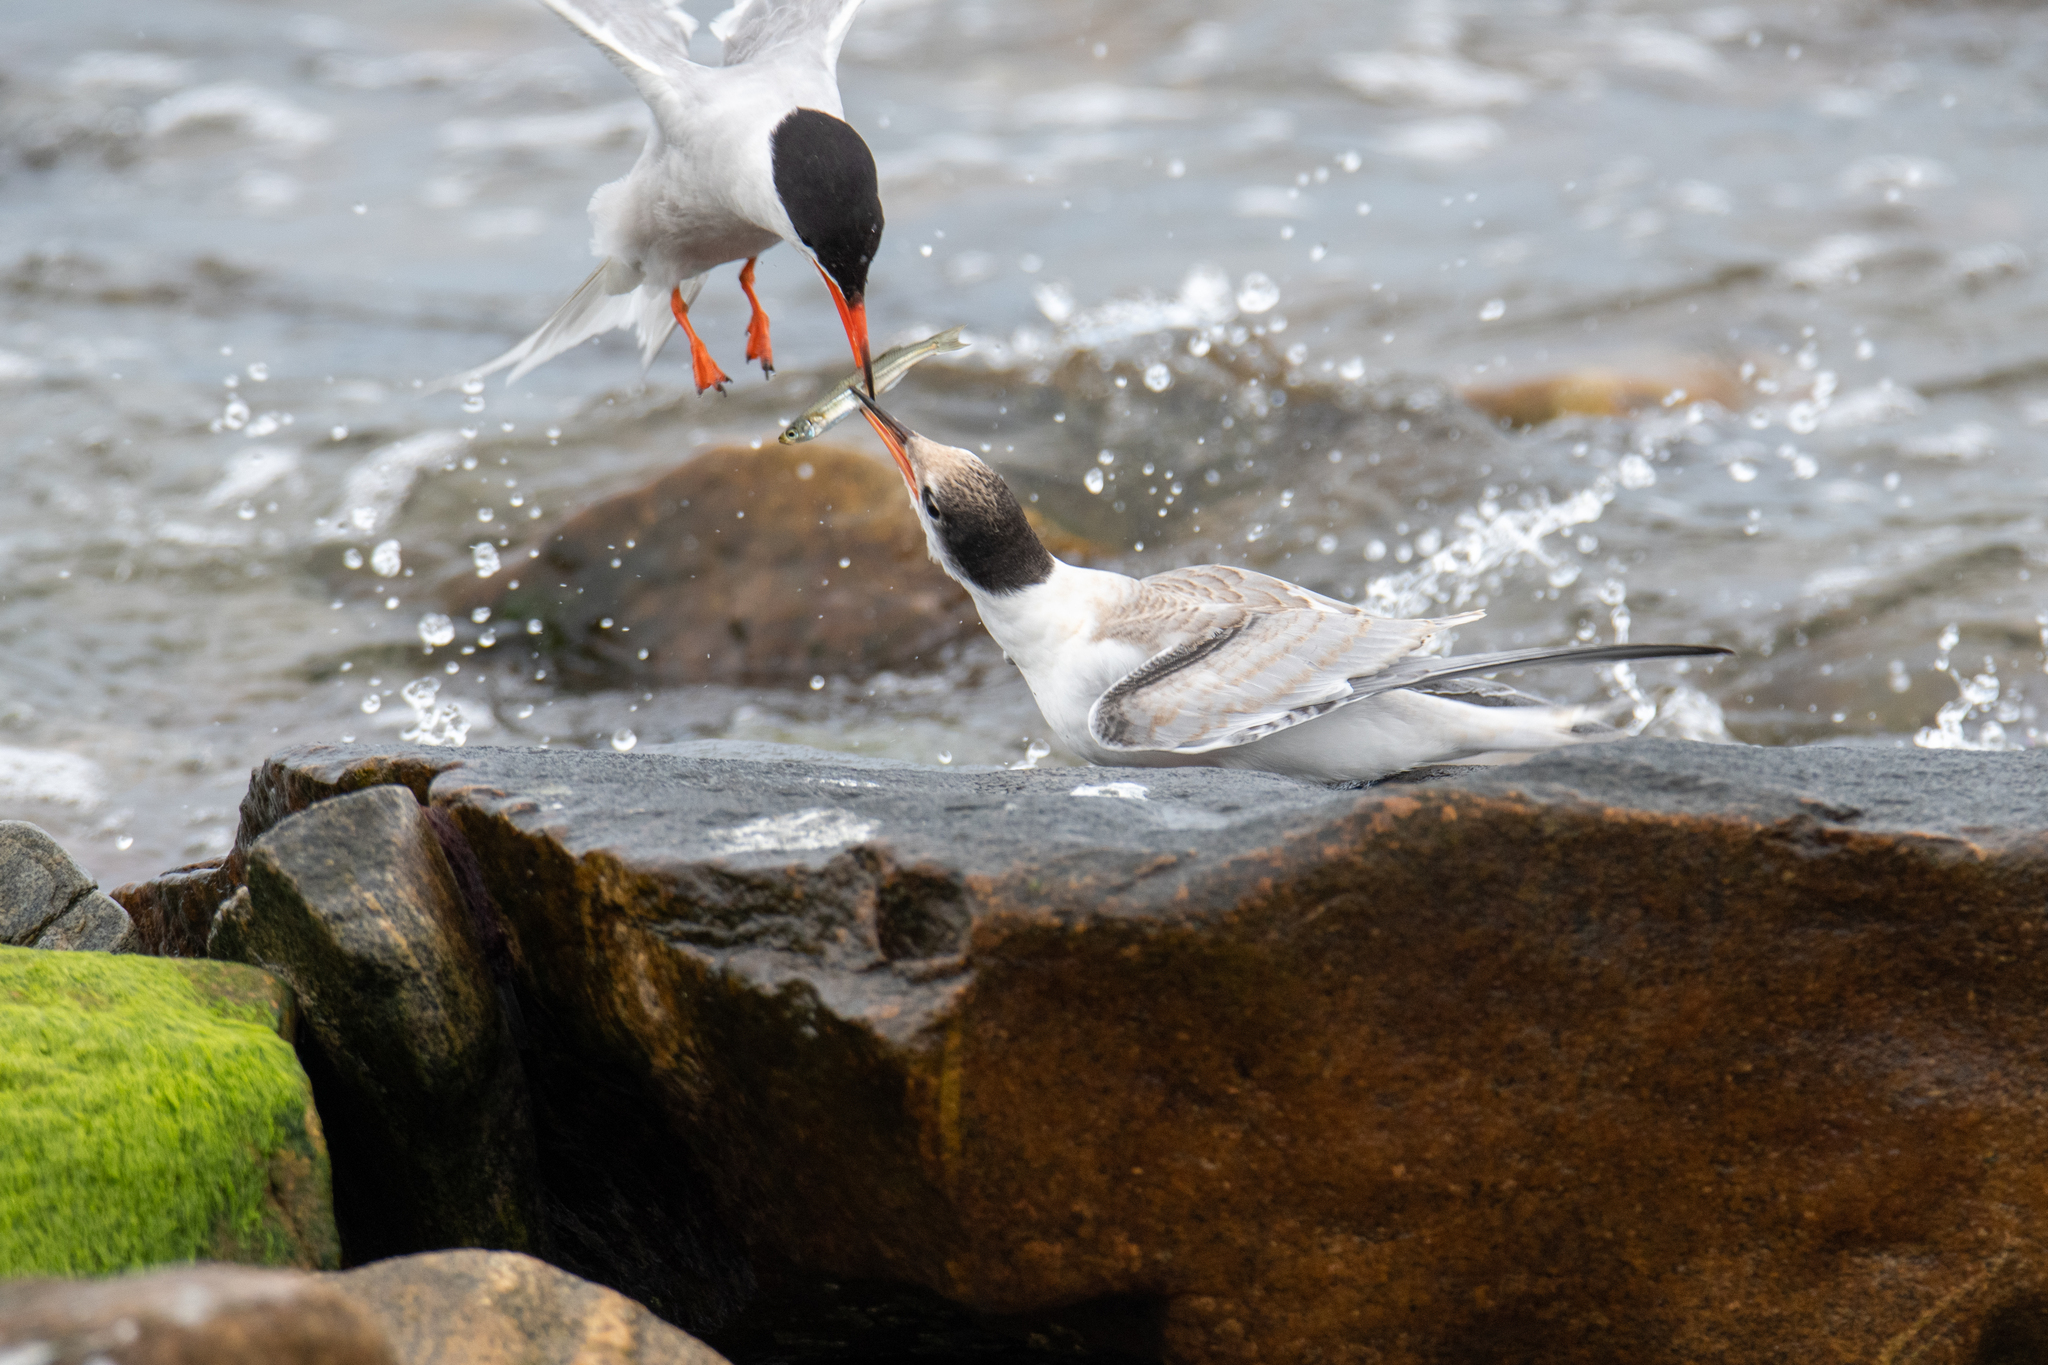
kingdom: Animalia
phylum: Chordata
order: Atheriniformes
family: Atherinopsidae
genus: Menidia
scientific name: Menidia menidia
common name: Atlantic silverside
